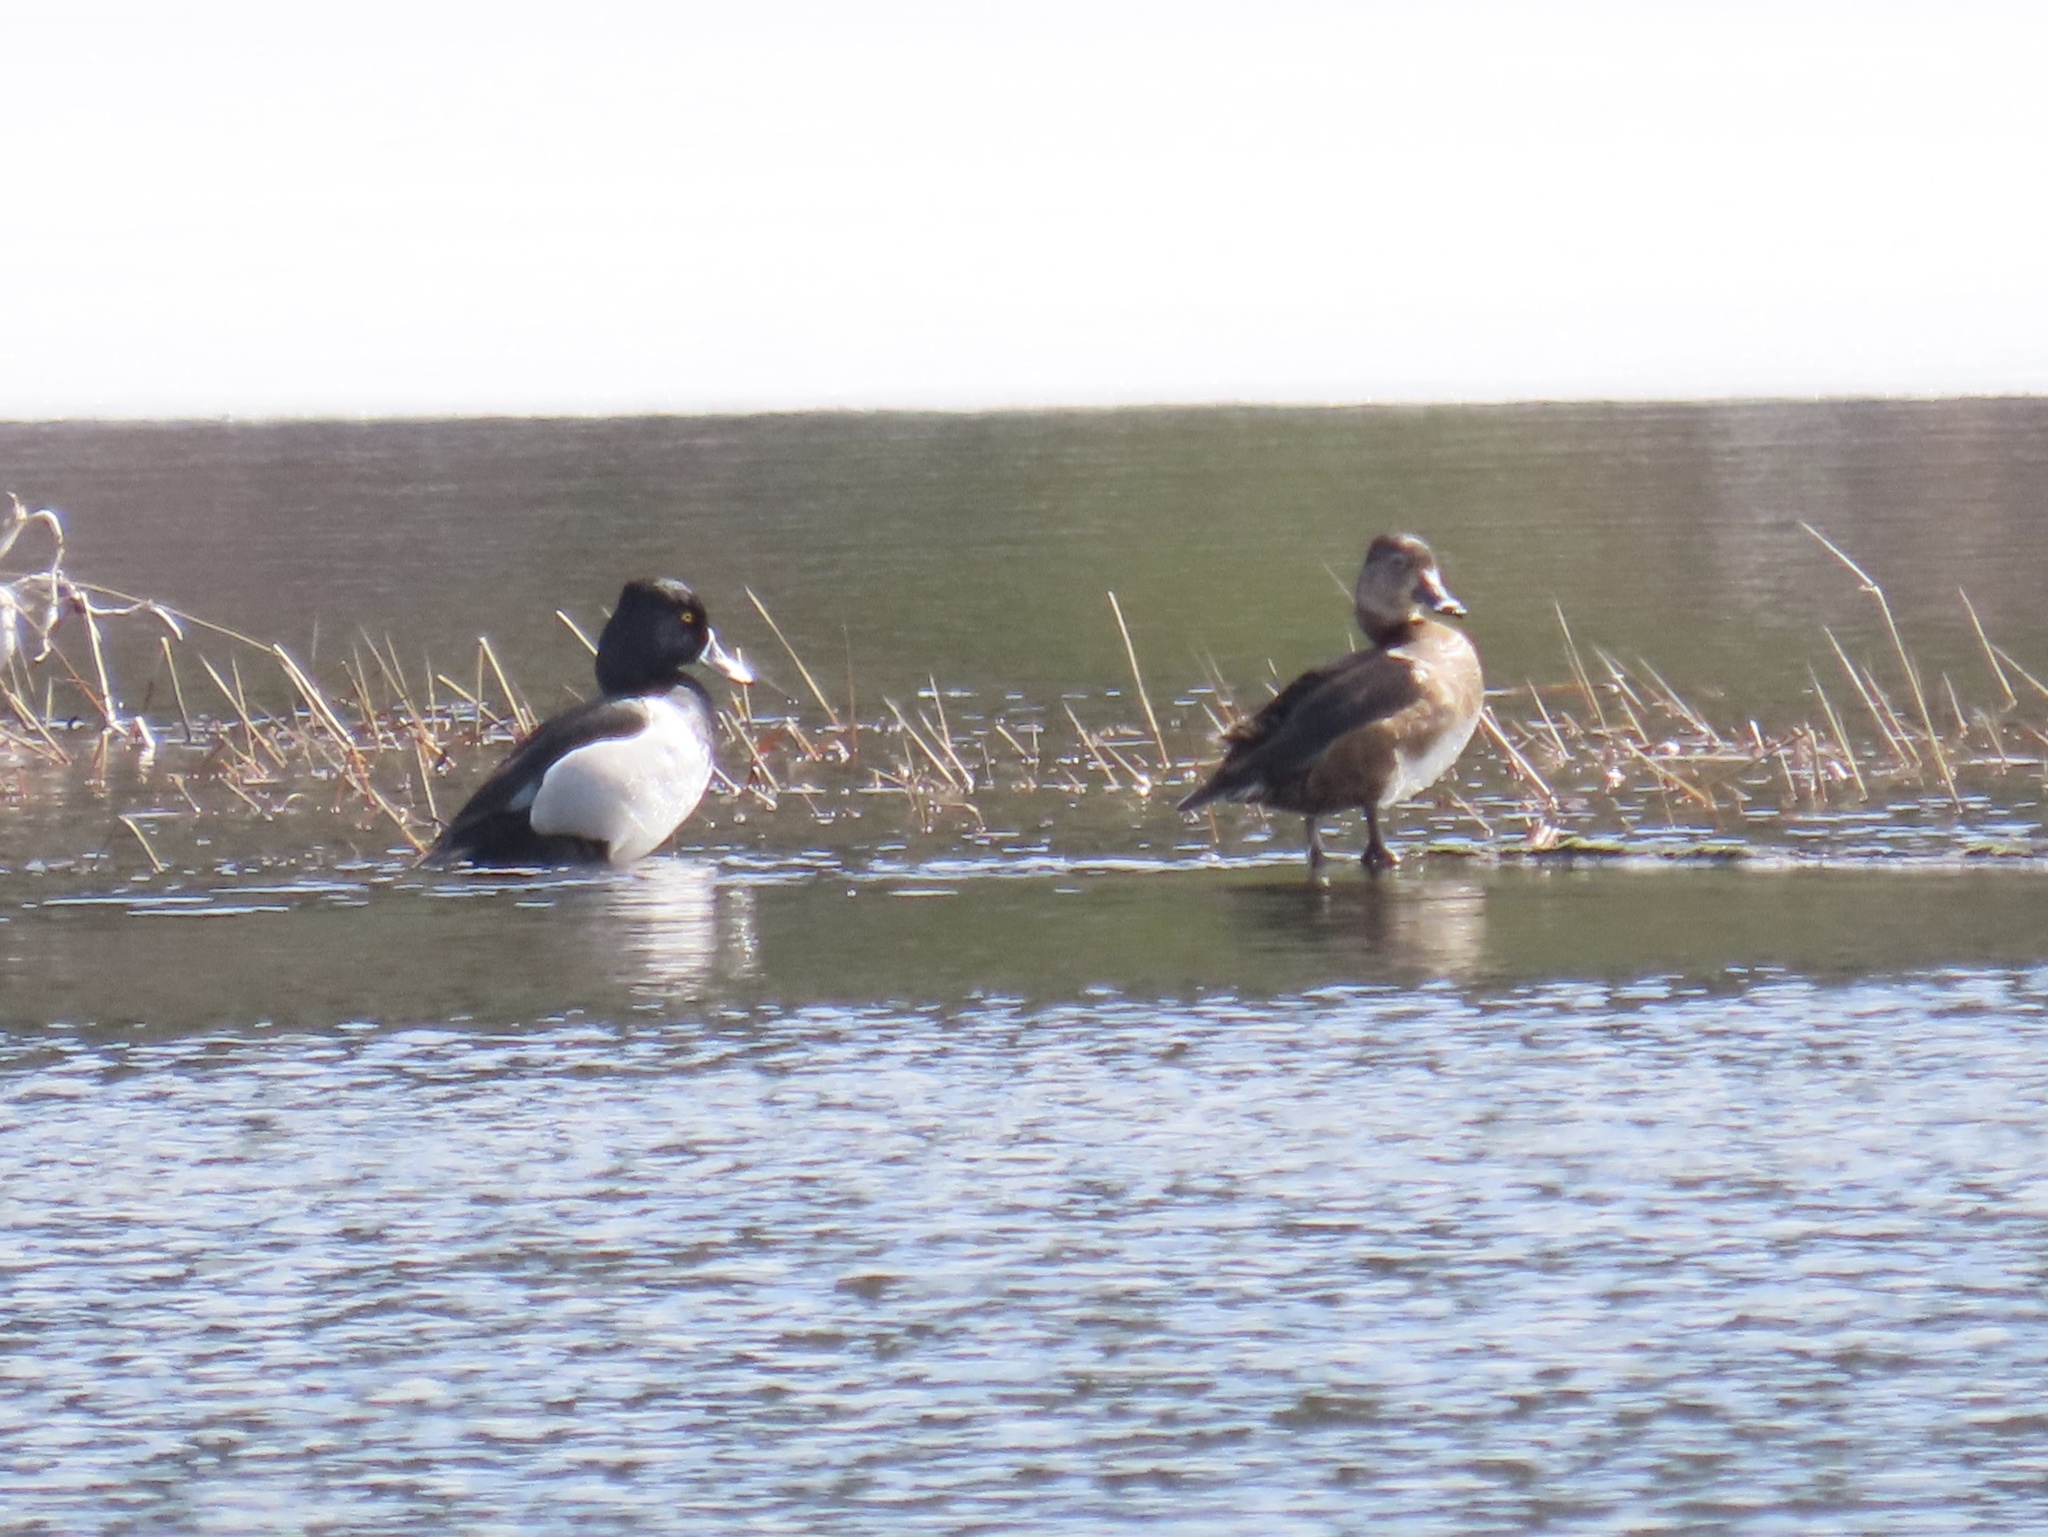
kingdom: Animalia
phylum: Chordata
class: Aves
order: Anseriformes
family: Anatidae
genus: Aythya
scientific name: Aythya collaris
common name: Ring-necked duck
